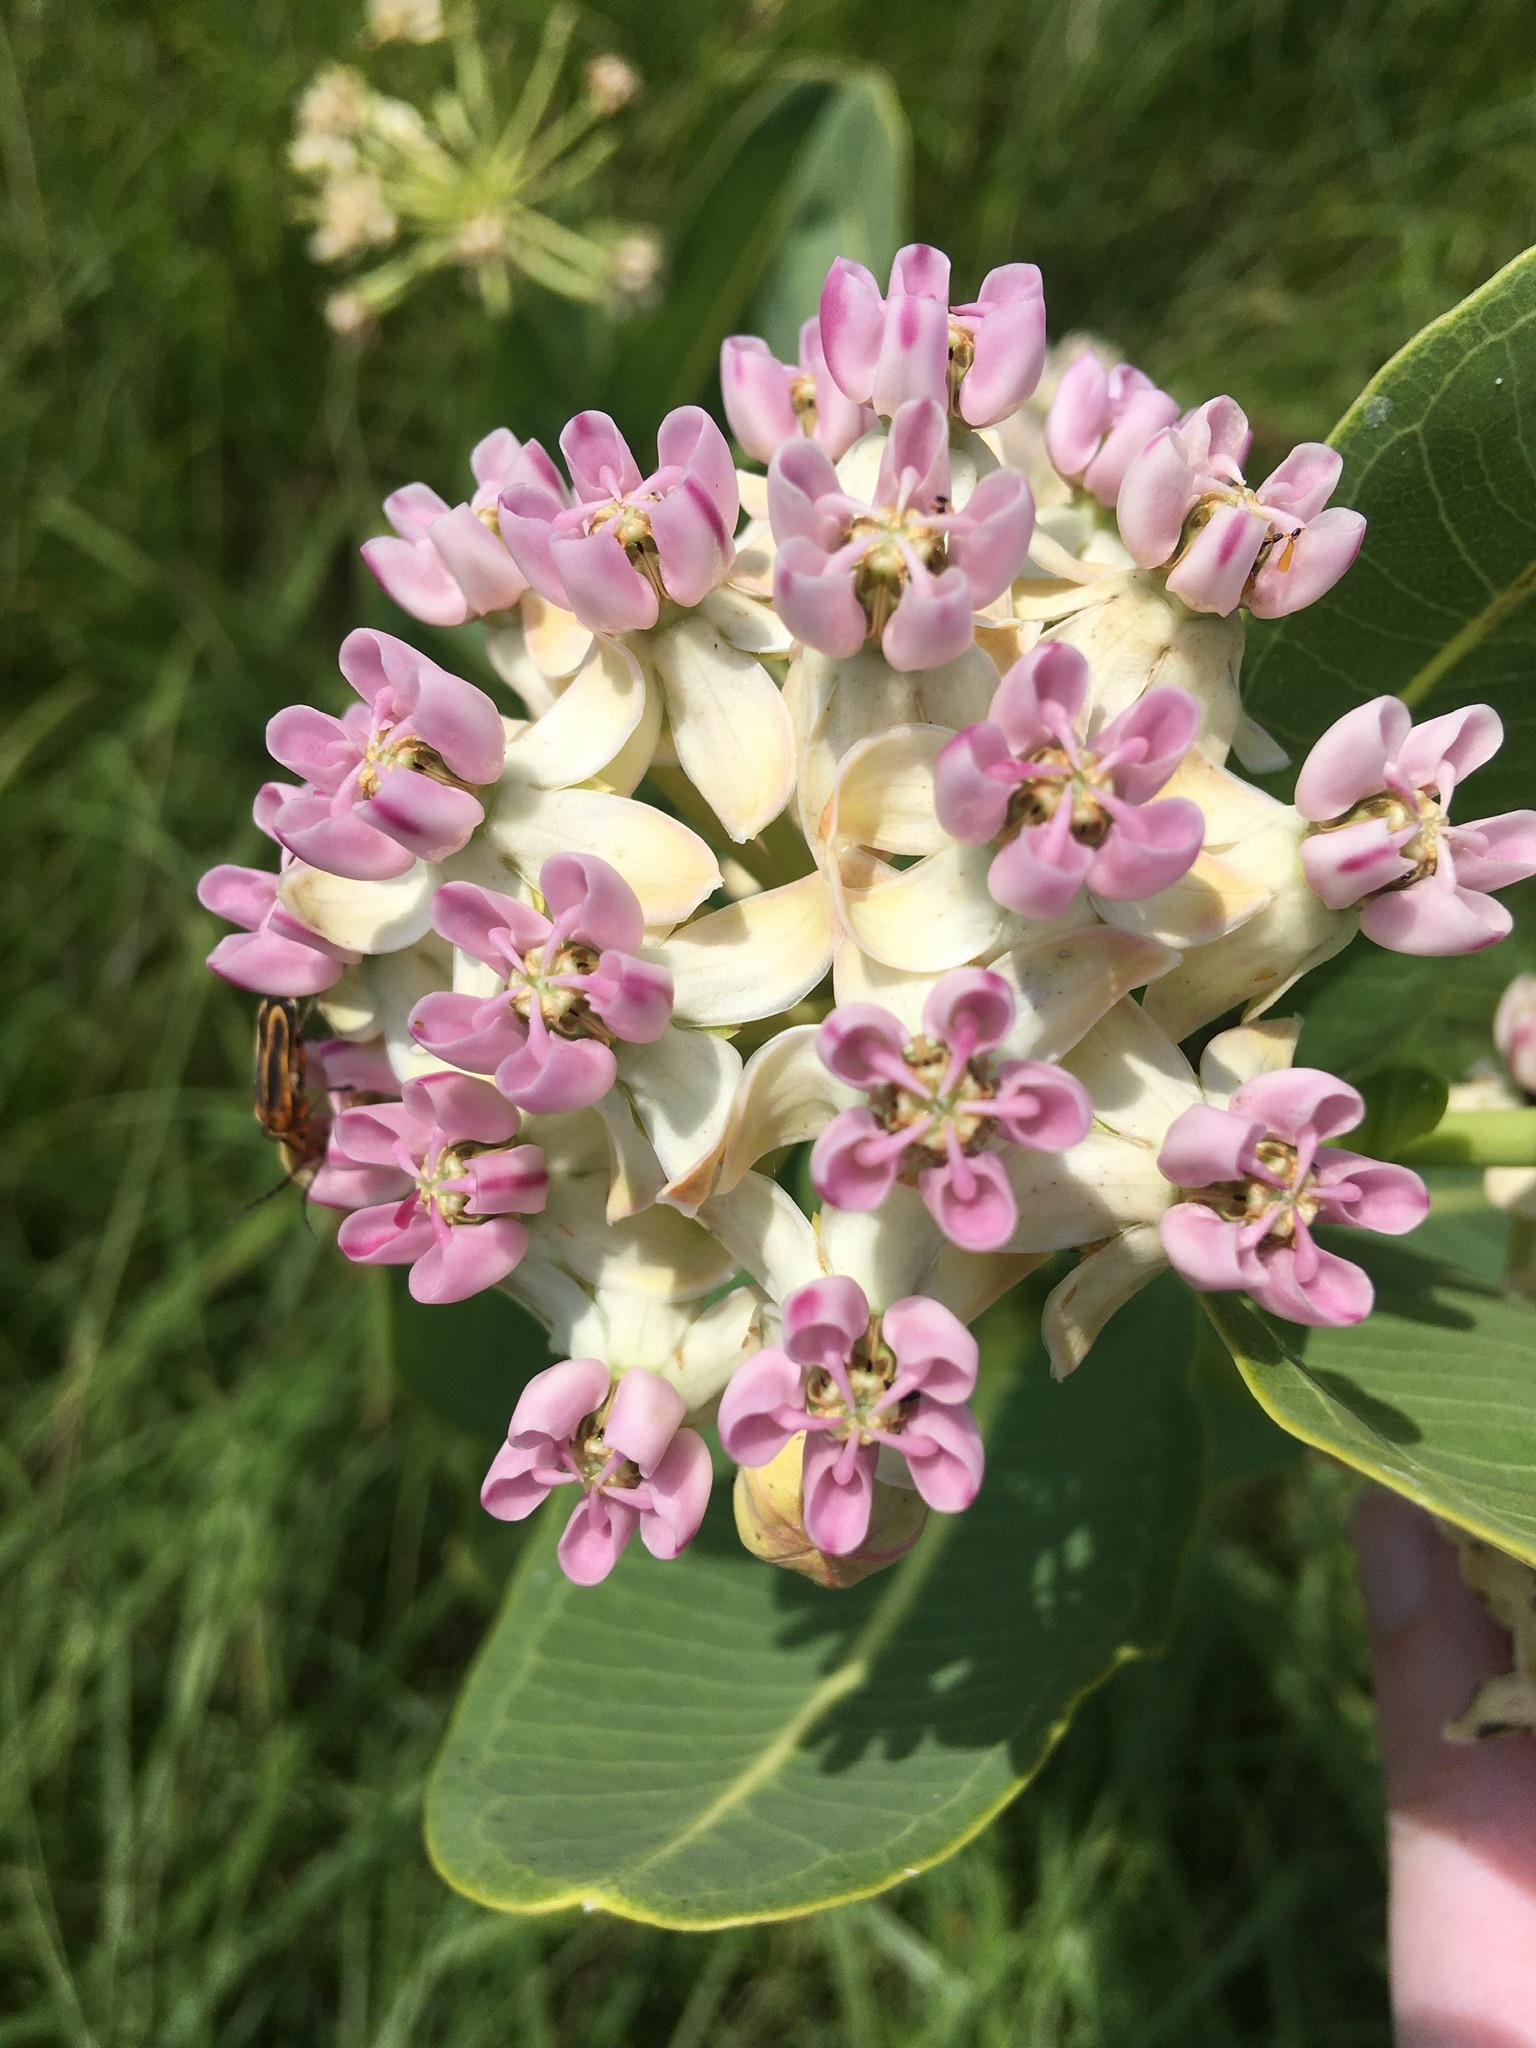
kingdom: Plantae
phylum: Tracheophyta
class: Magnoliopsida
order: Gentianales
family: Apocynaceae
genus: Asclepias
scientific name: Asclepias sullivantii
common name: Prairie milkweed
